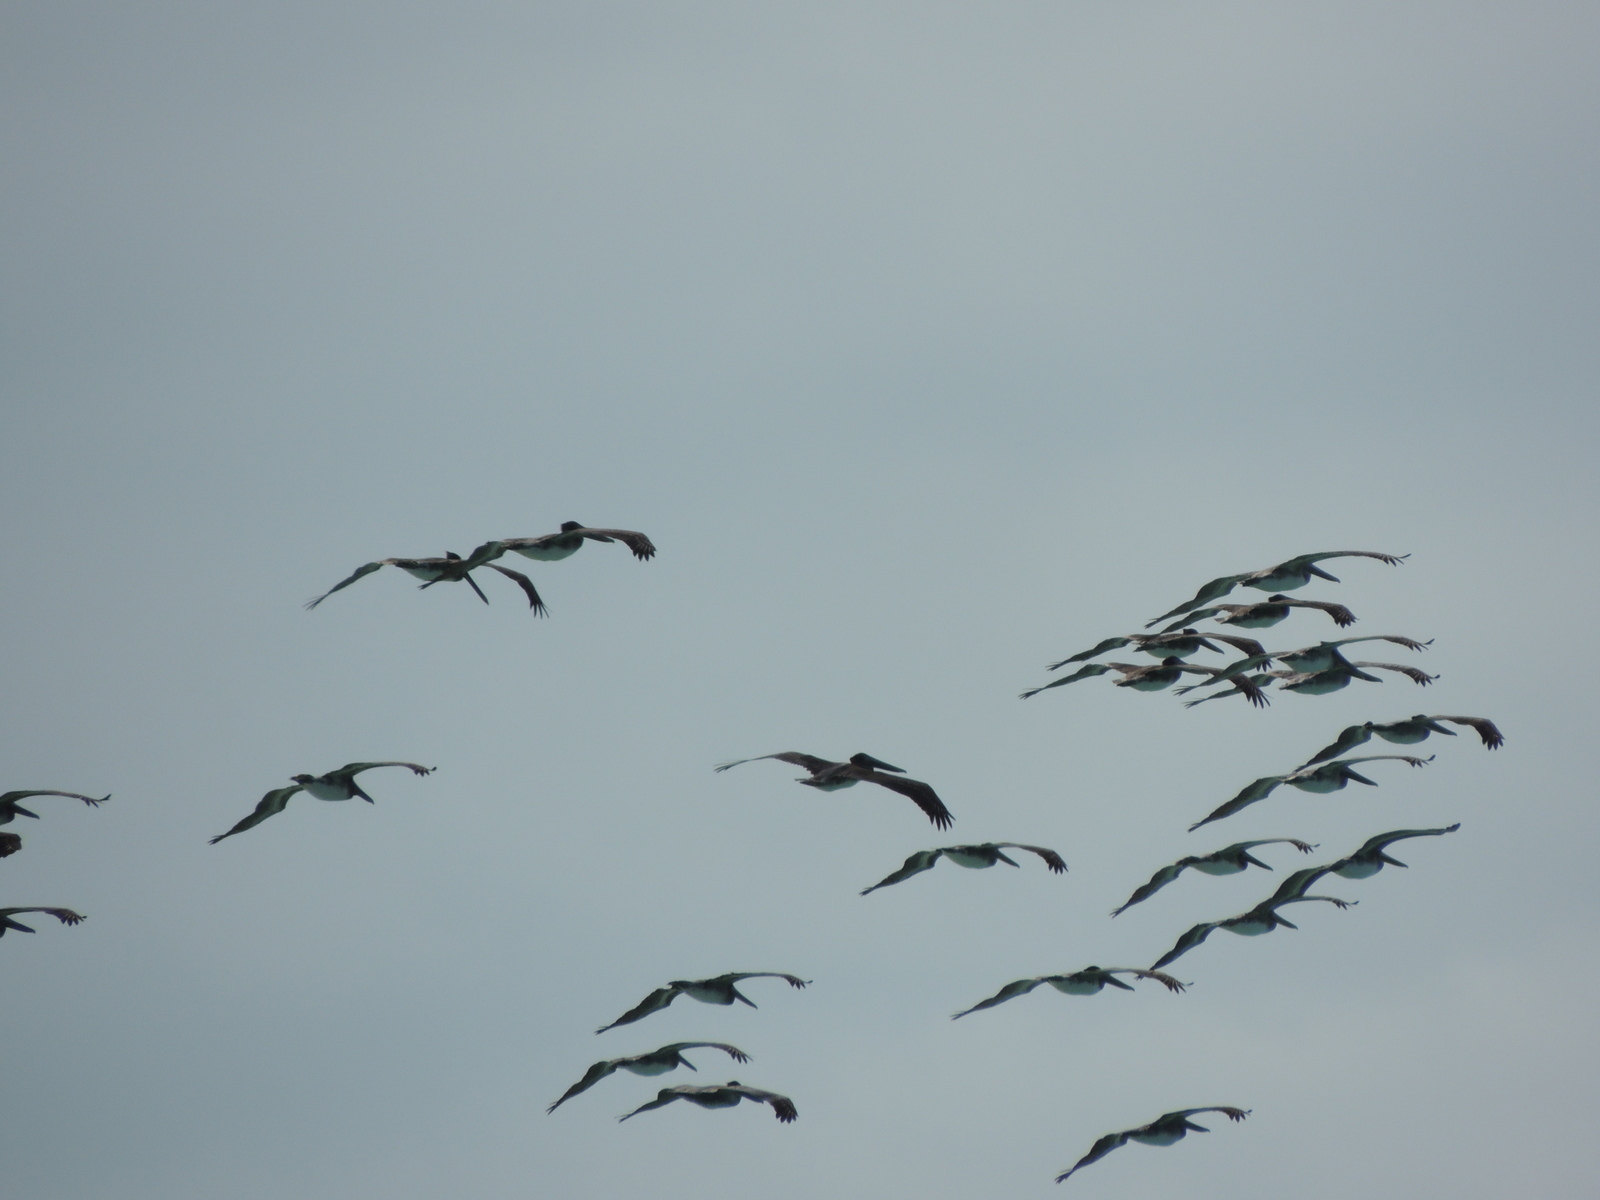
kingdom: Animalia
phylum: Chordata
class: Aves
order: Pelecaniformes
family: Pelecanidae
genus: Pelecanus
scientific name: Pelecanus occidentalis
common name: Brown pelican
